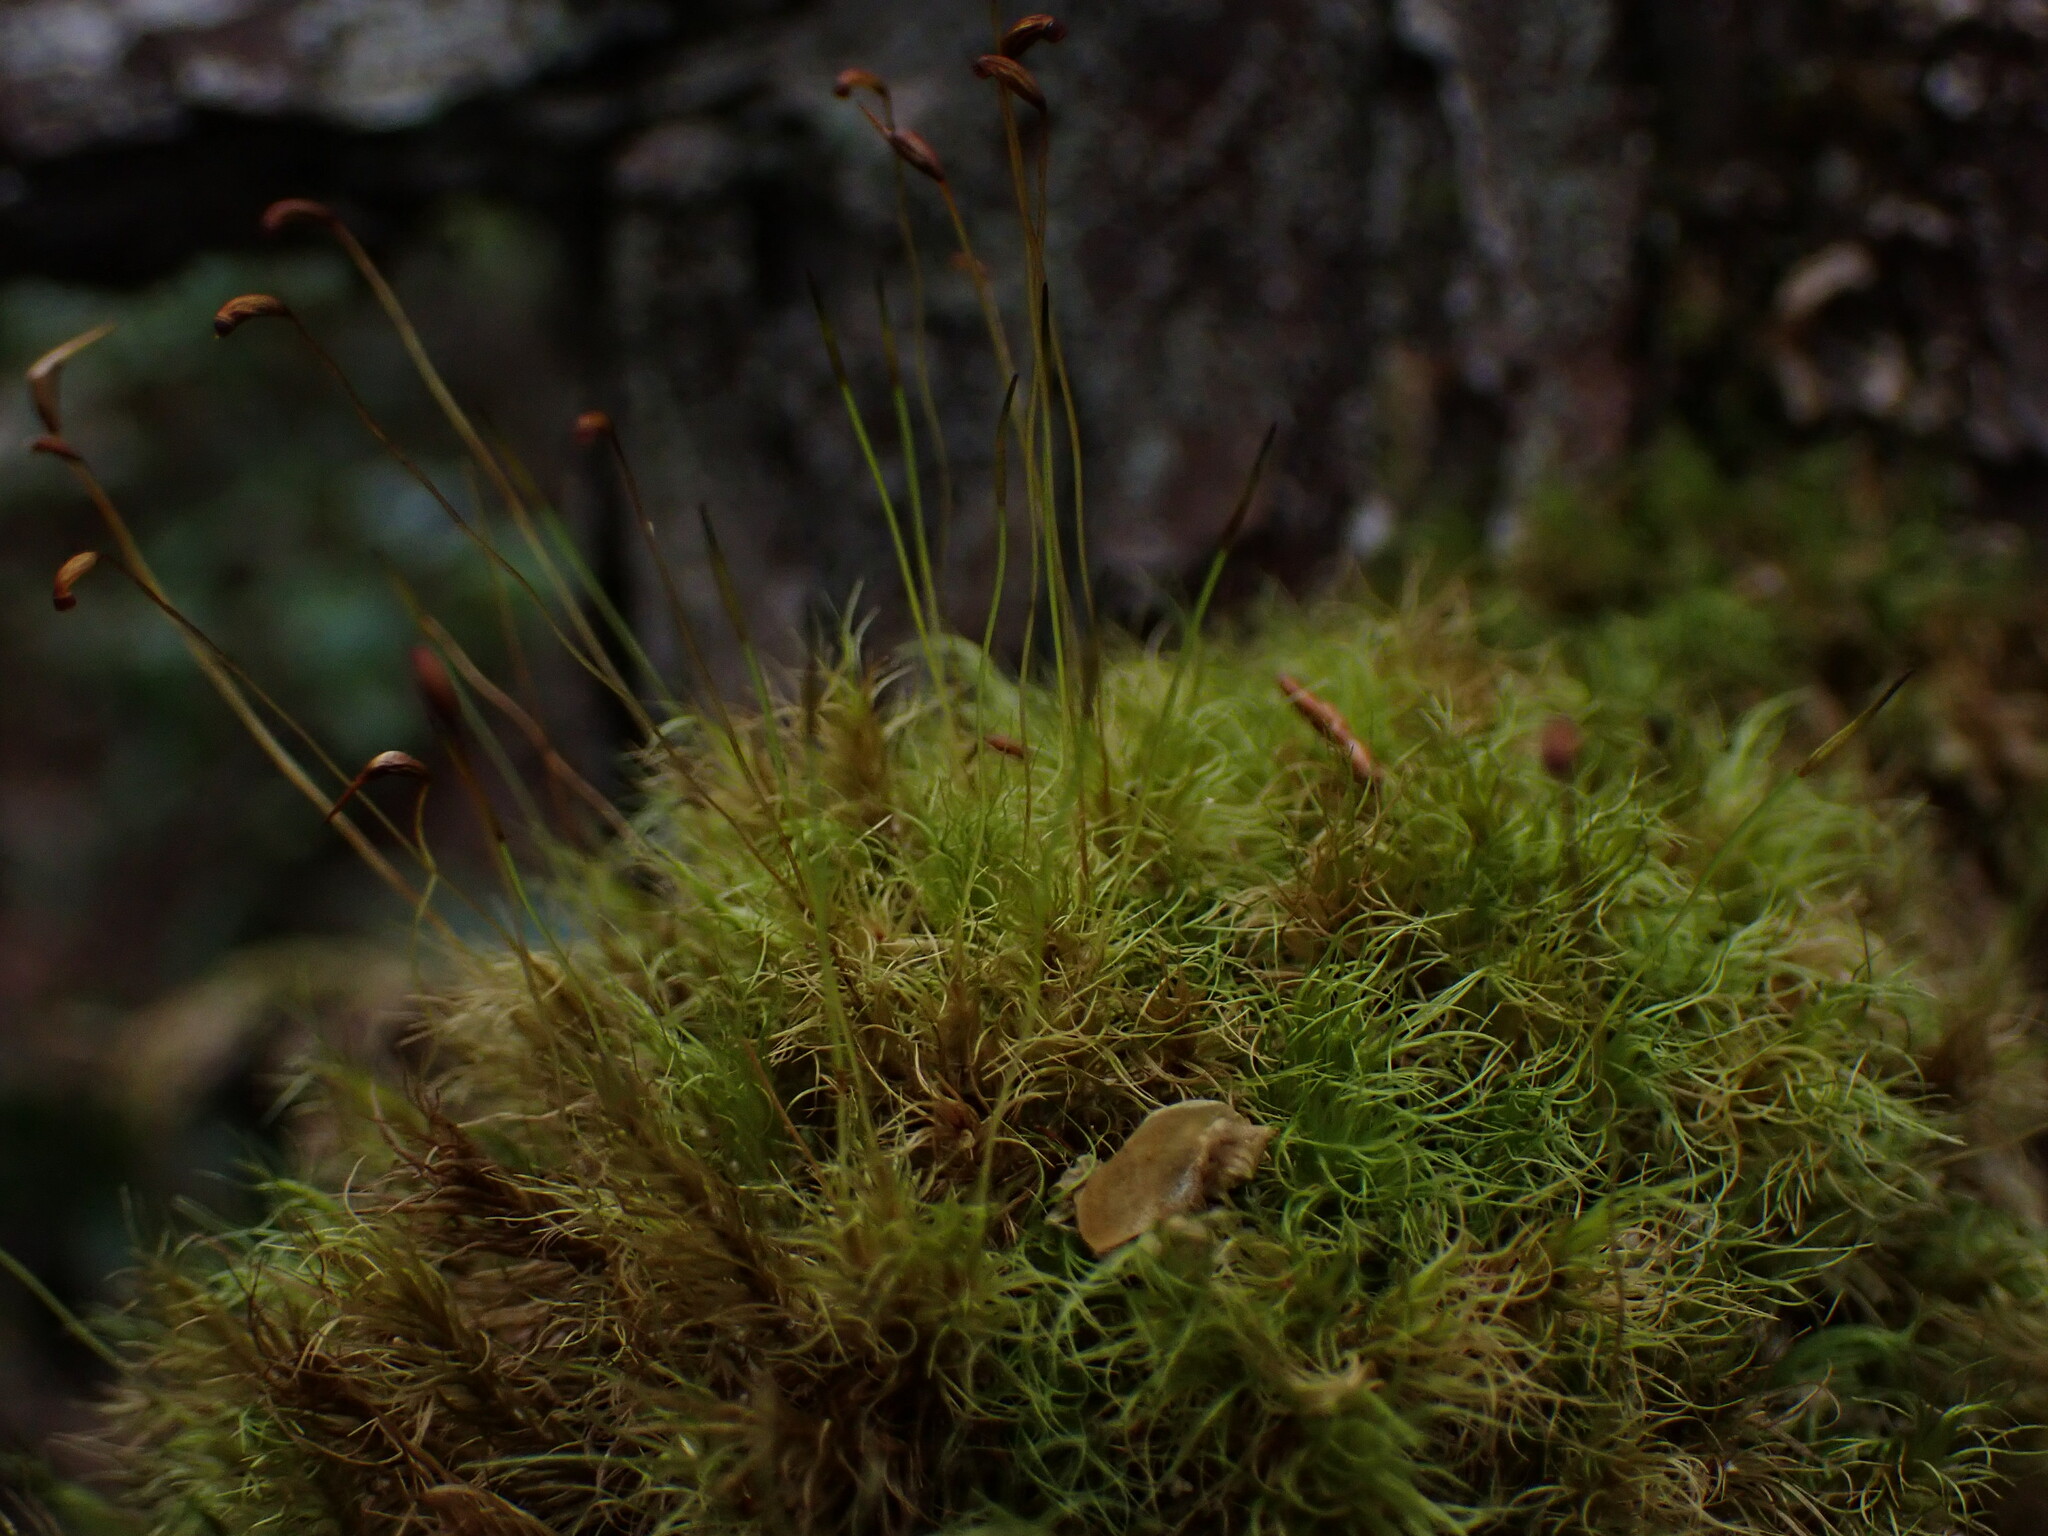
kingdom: Plantae
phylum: Bryophyta
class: Bryopsida
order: Dicranales
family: Dicranaceae
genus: Dicranum
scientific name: Dicranum fuscescens
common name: Curly heron's-bill moss
